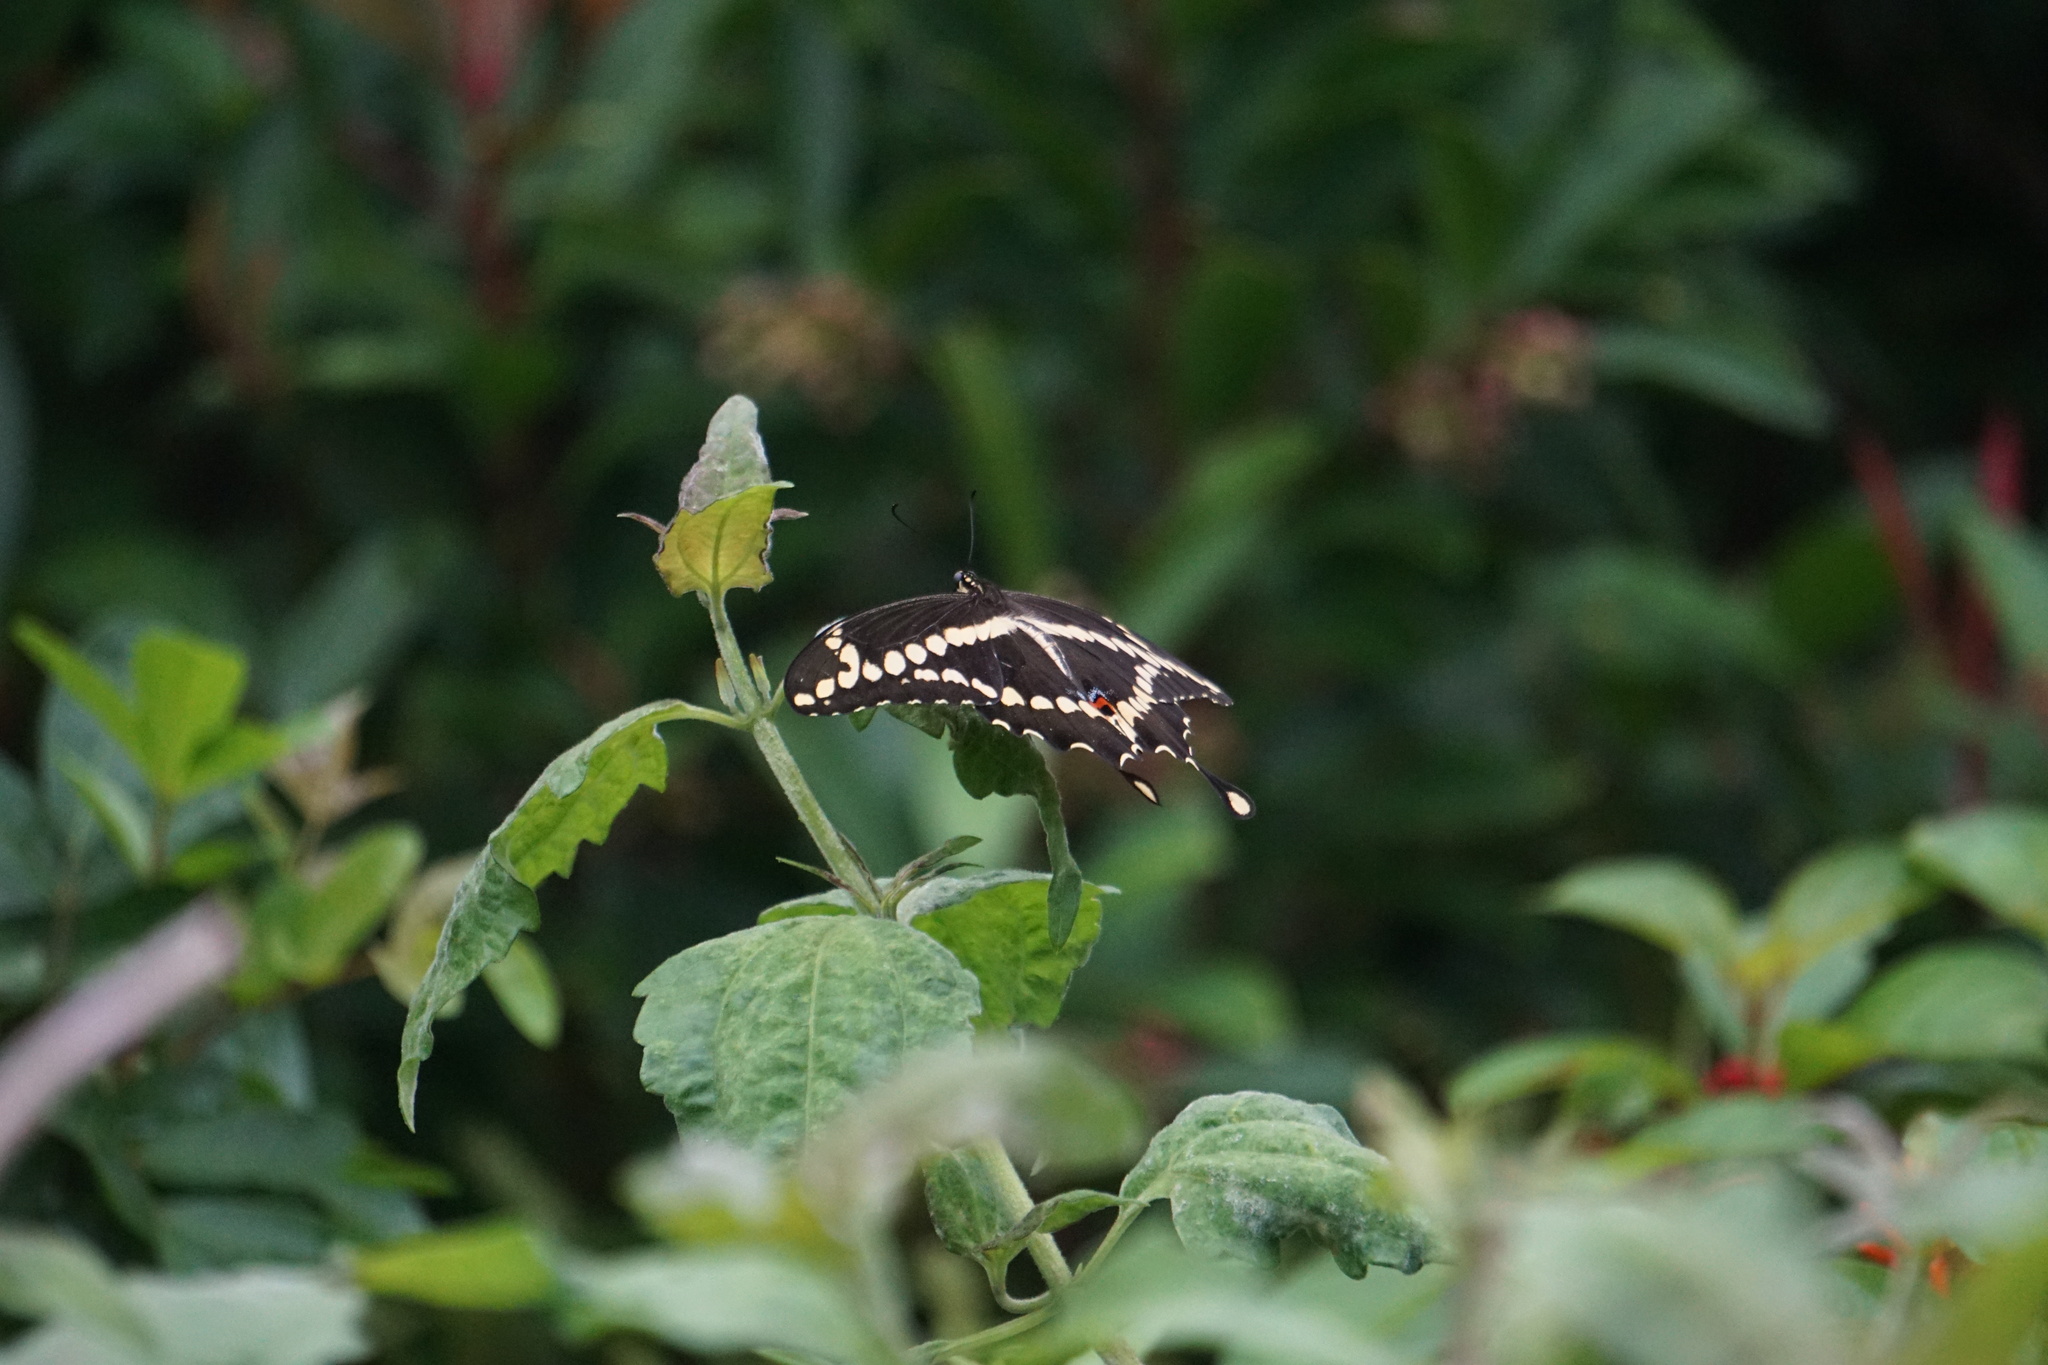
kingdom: Animalia
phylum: Arthropoda
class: Insecta
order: Lepidoptera
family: Papilionidae
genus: Papilio
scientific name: Papilio cresphontes
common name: Giant swallowtail
